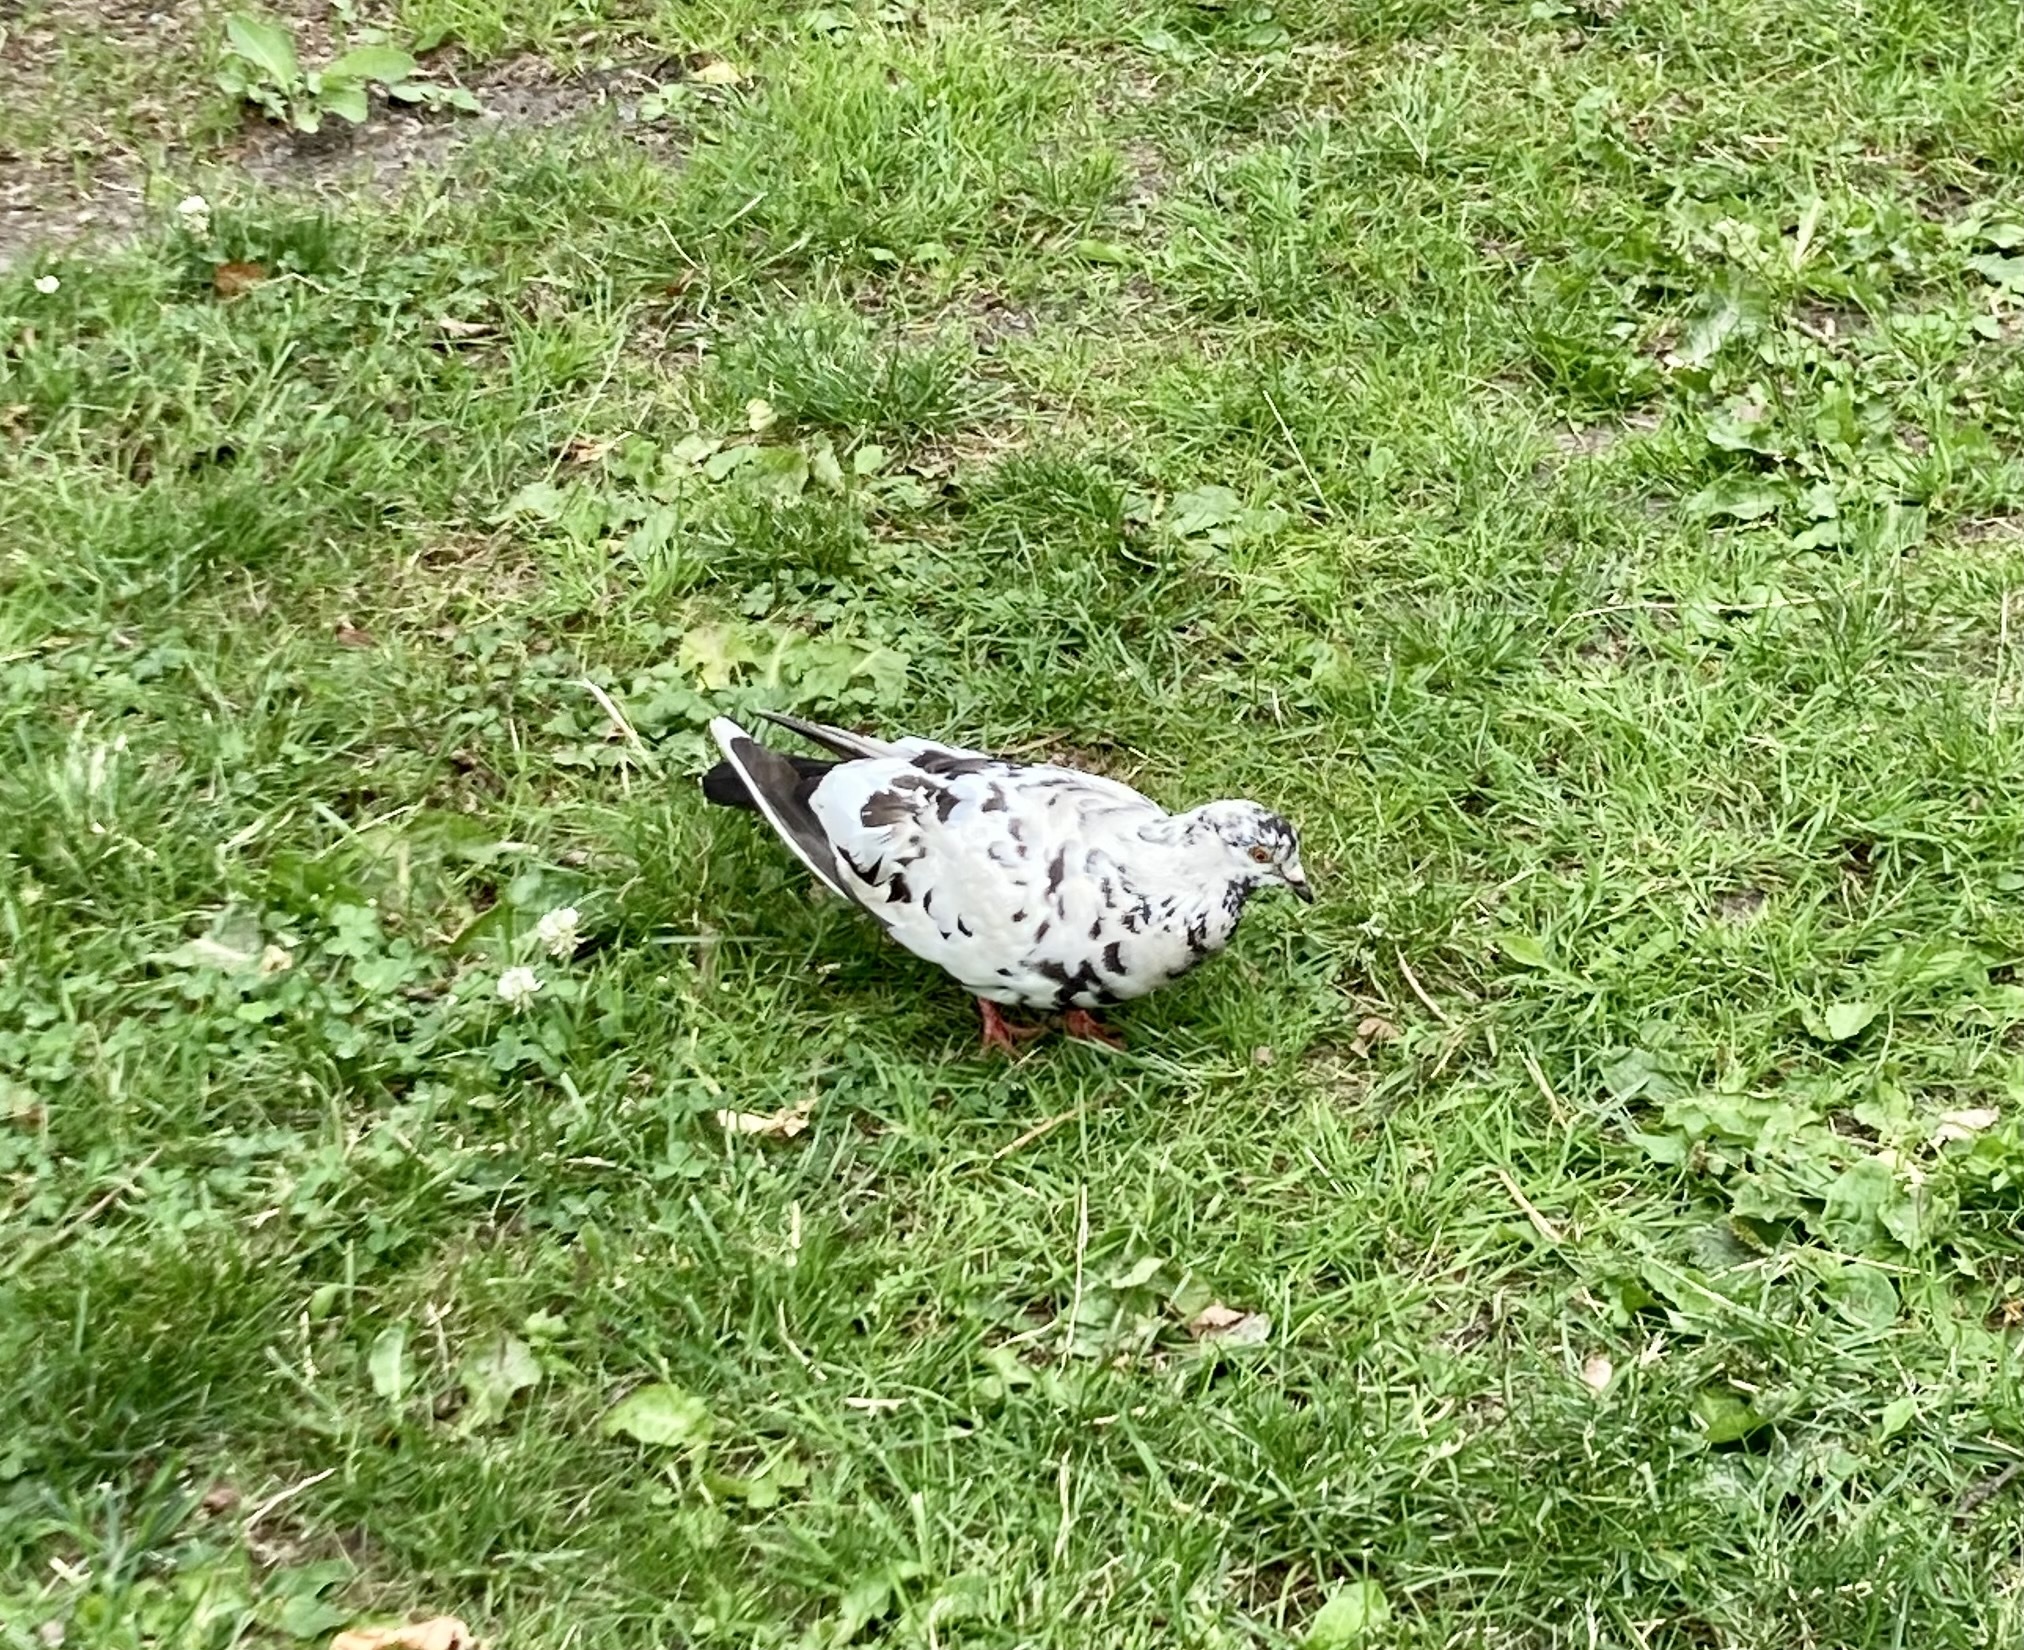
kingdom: Animalia
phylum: Chordata
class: Aves
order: Columbiformes
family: Columbidae
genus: Columba
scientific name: Columba livia
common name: Rock pigeon
